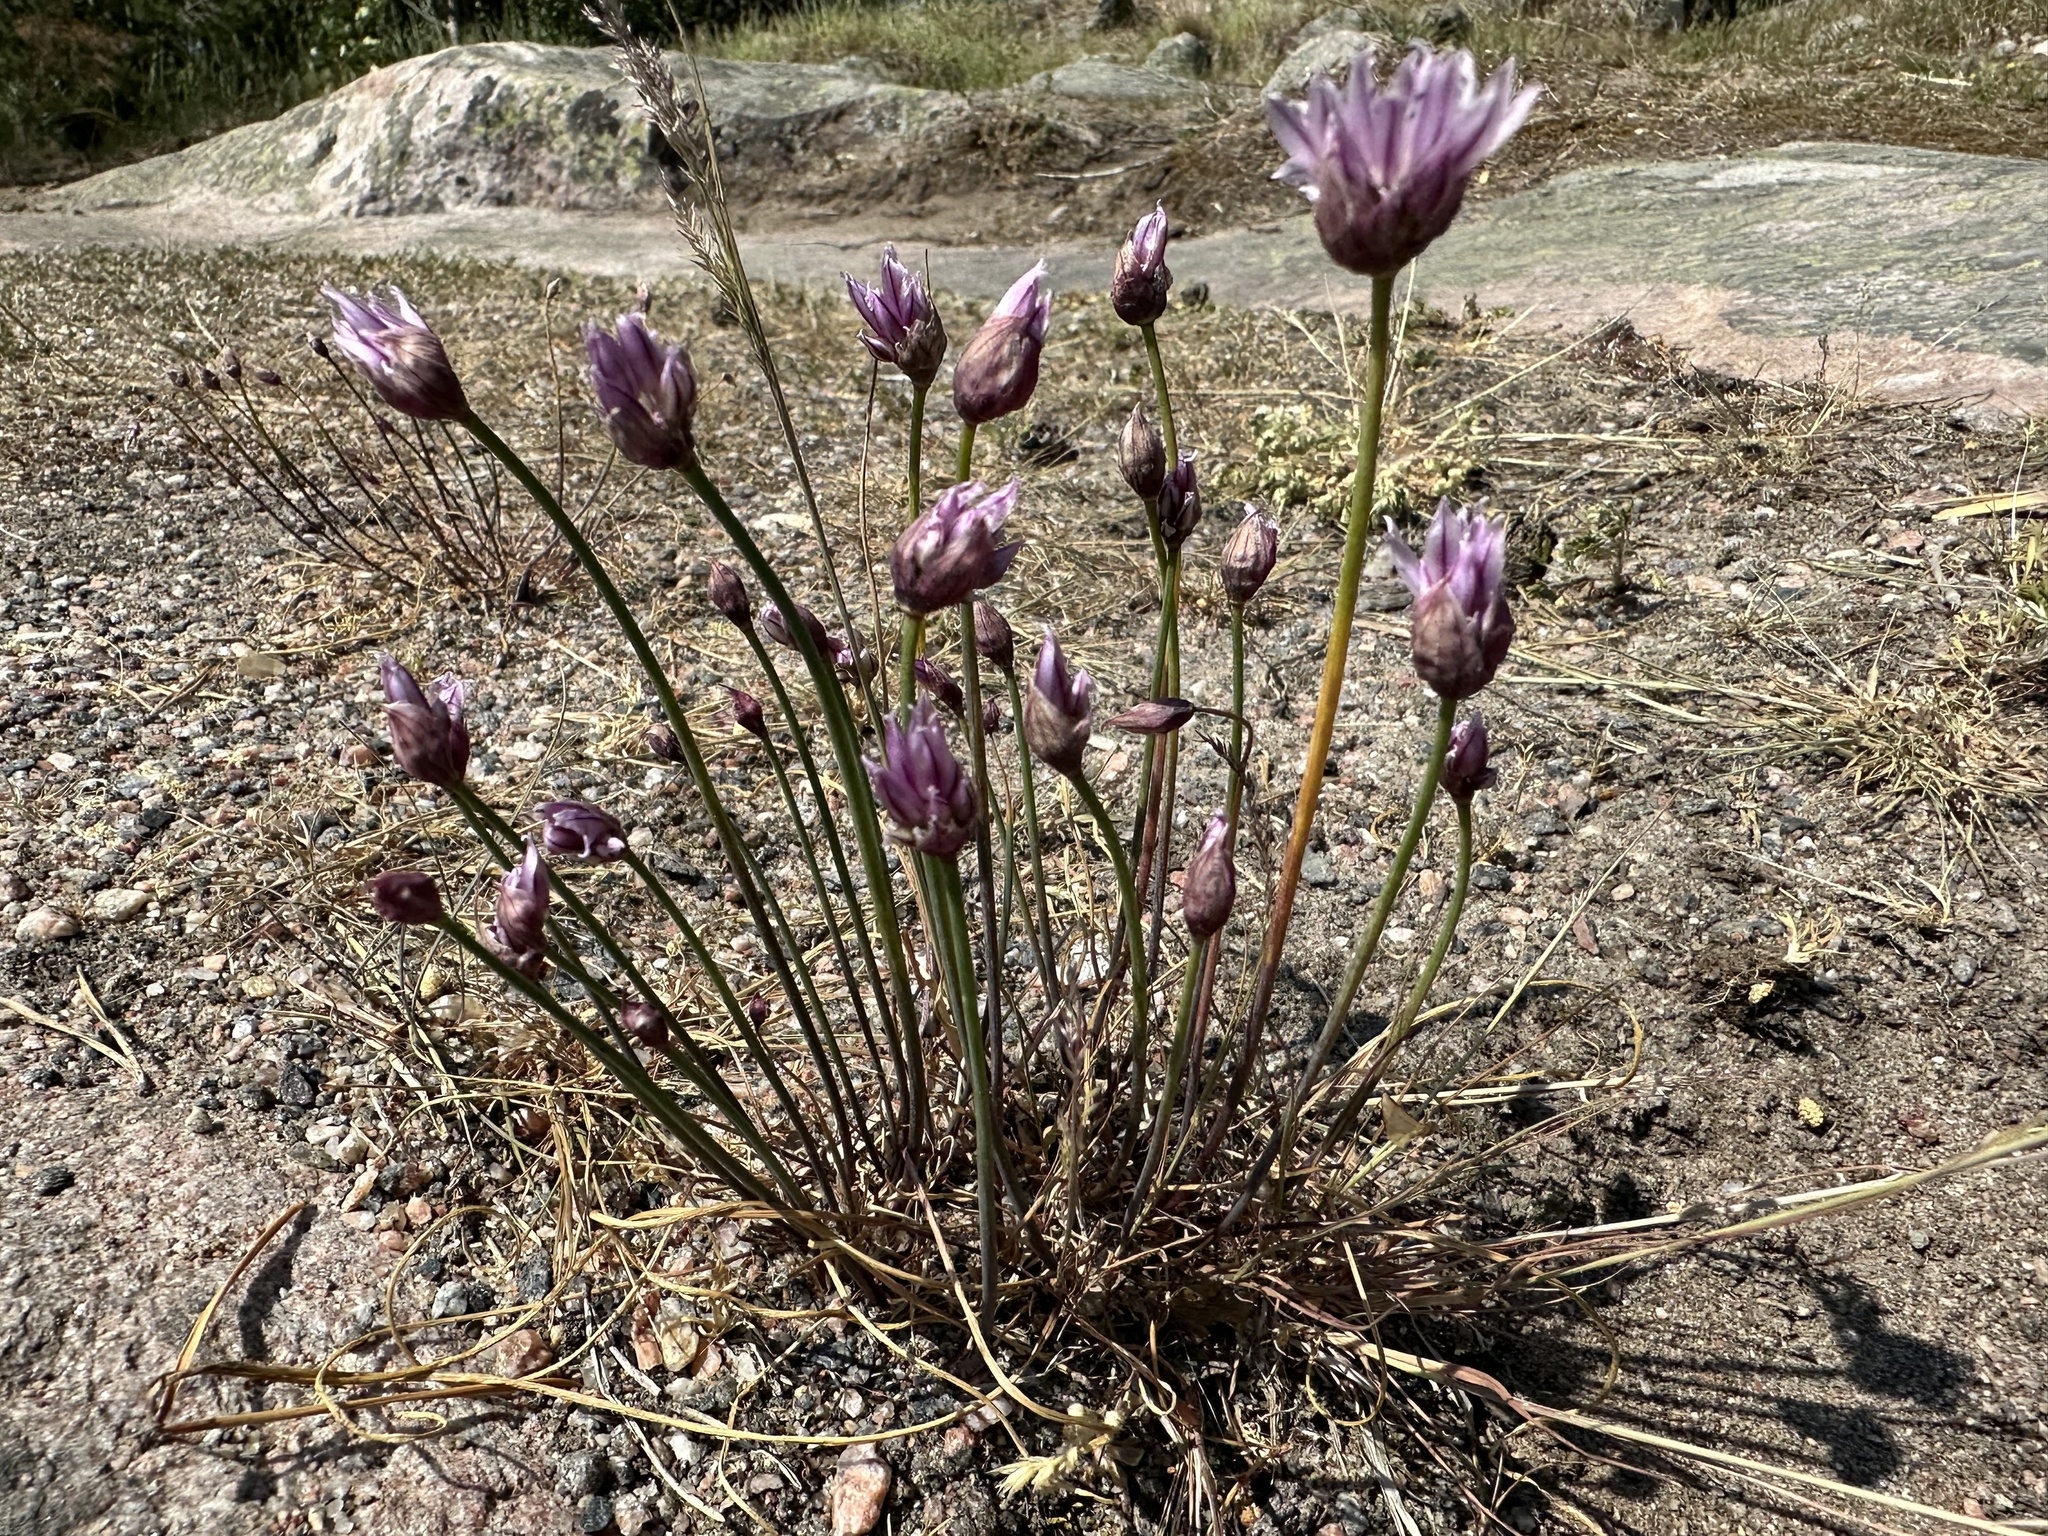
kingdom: Plantae
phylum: Tracheophyta
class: Liliopsida
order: Asparagales
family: Amaryllidaceae
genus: Allium
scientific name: Allium schoenoprasum
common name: Chives
